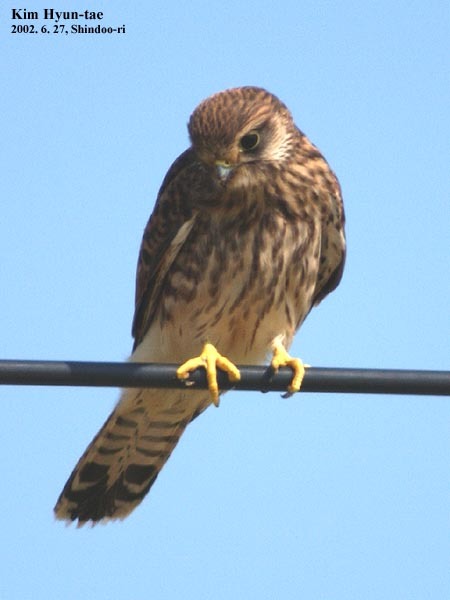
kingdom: Animalia
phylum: Chordata
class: Aves
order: Falconiformes
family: Falconidae
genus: Falco
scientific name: Falco tinnunculus
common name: Common kestrel
